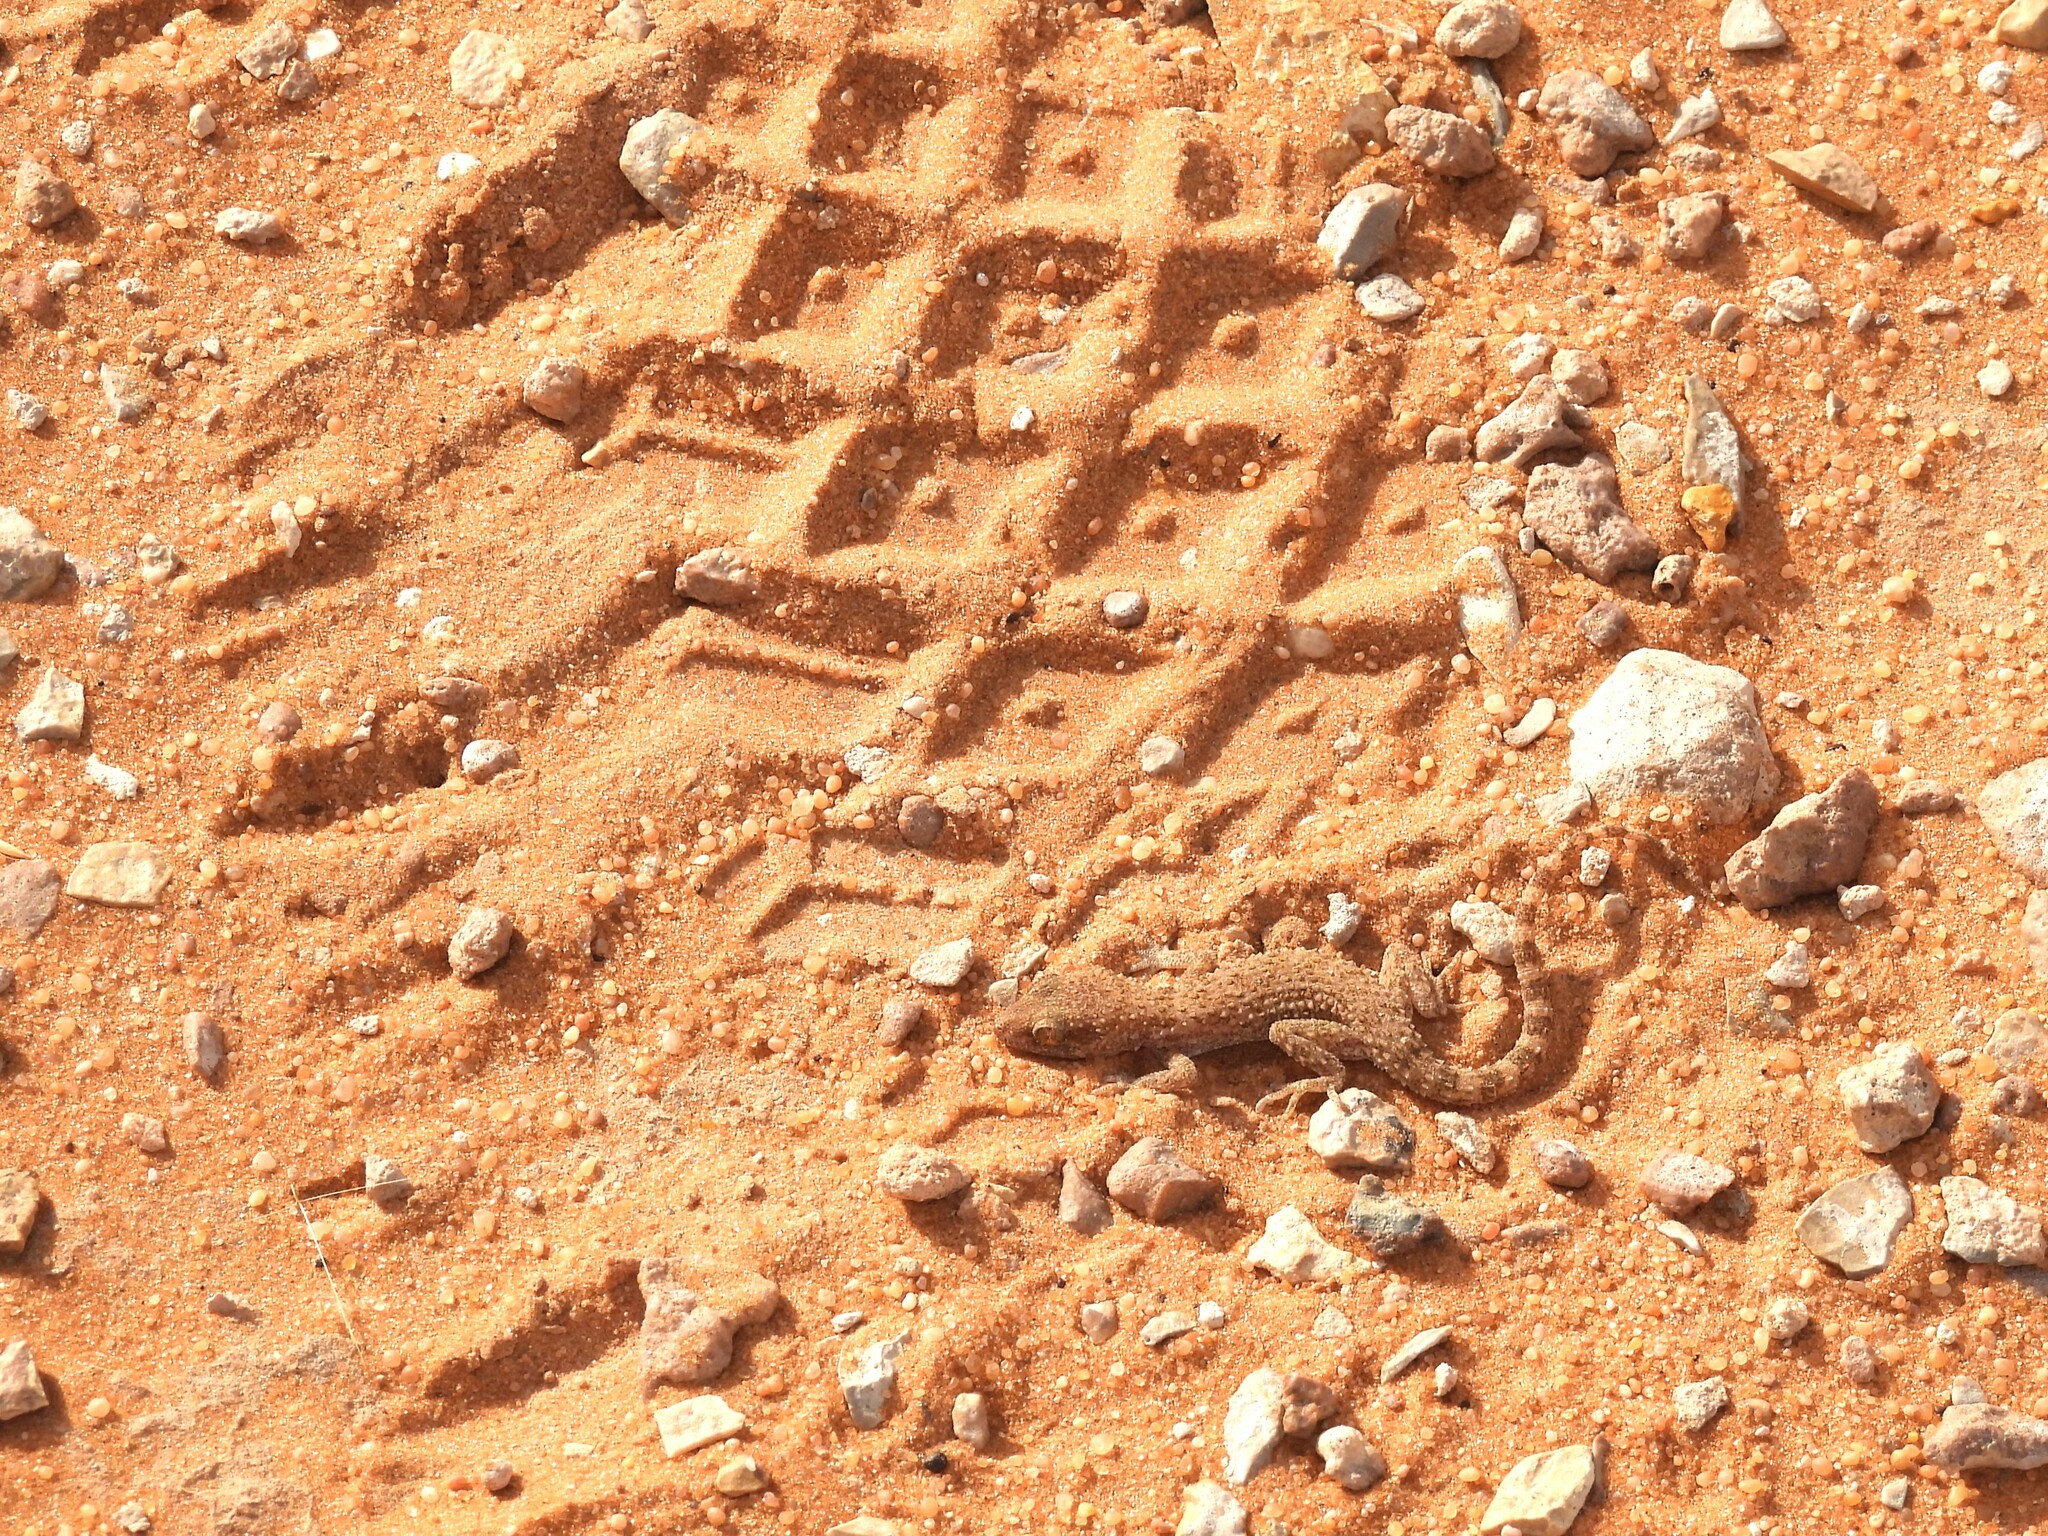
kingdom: Animalia
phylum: Chordata
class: Squamata
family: Gekkonidae
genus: Bunopus
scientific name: Bunopus tuberculatus
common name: Southern tuberculated gecko
